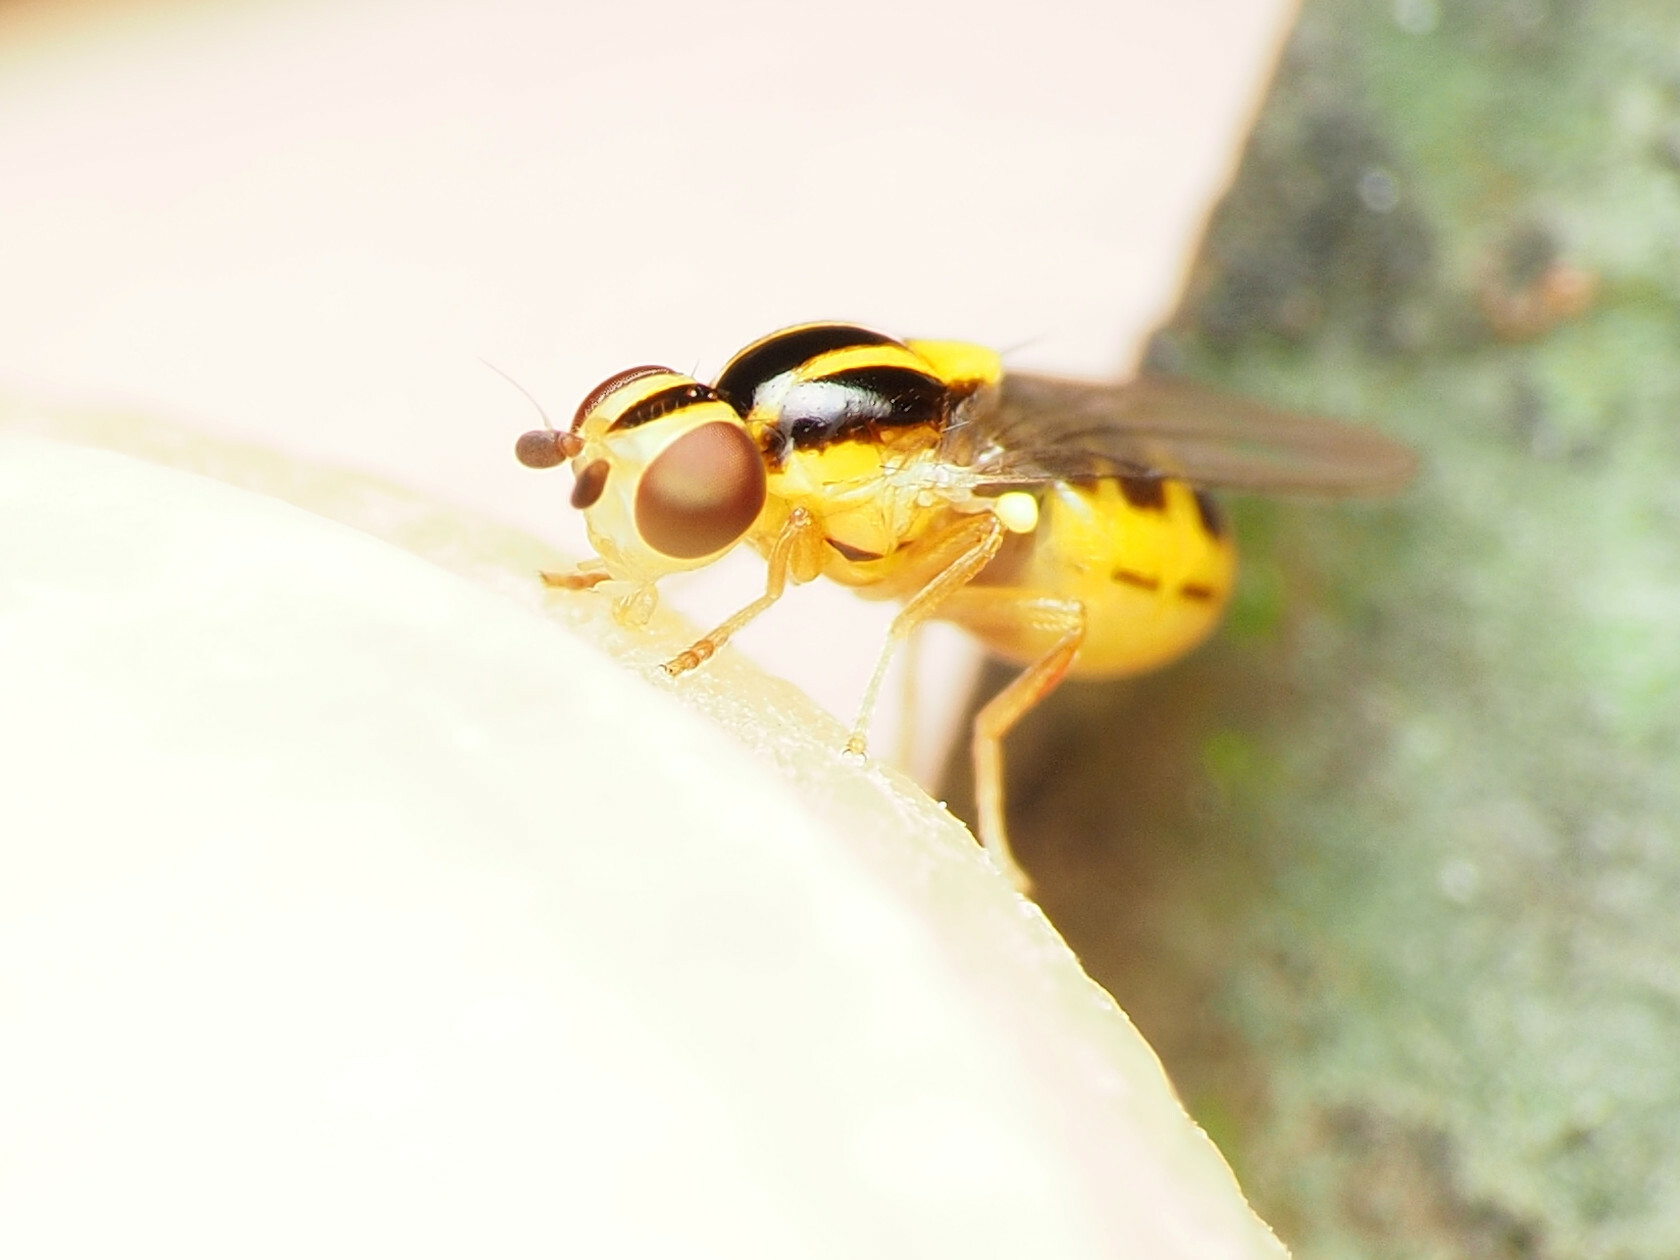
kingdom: Animalia
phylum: Arthropoda
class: Insecta
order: Diptera
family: Chloropidae
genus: Thaumatomyia
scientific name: Thaumatomyia glabra
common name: Chloropid fly
